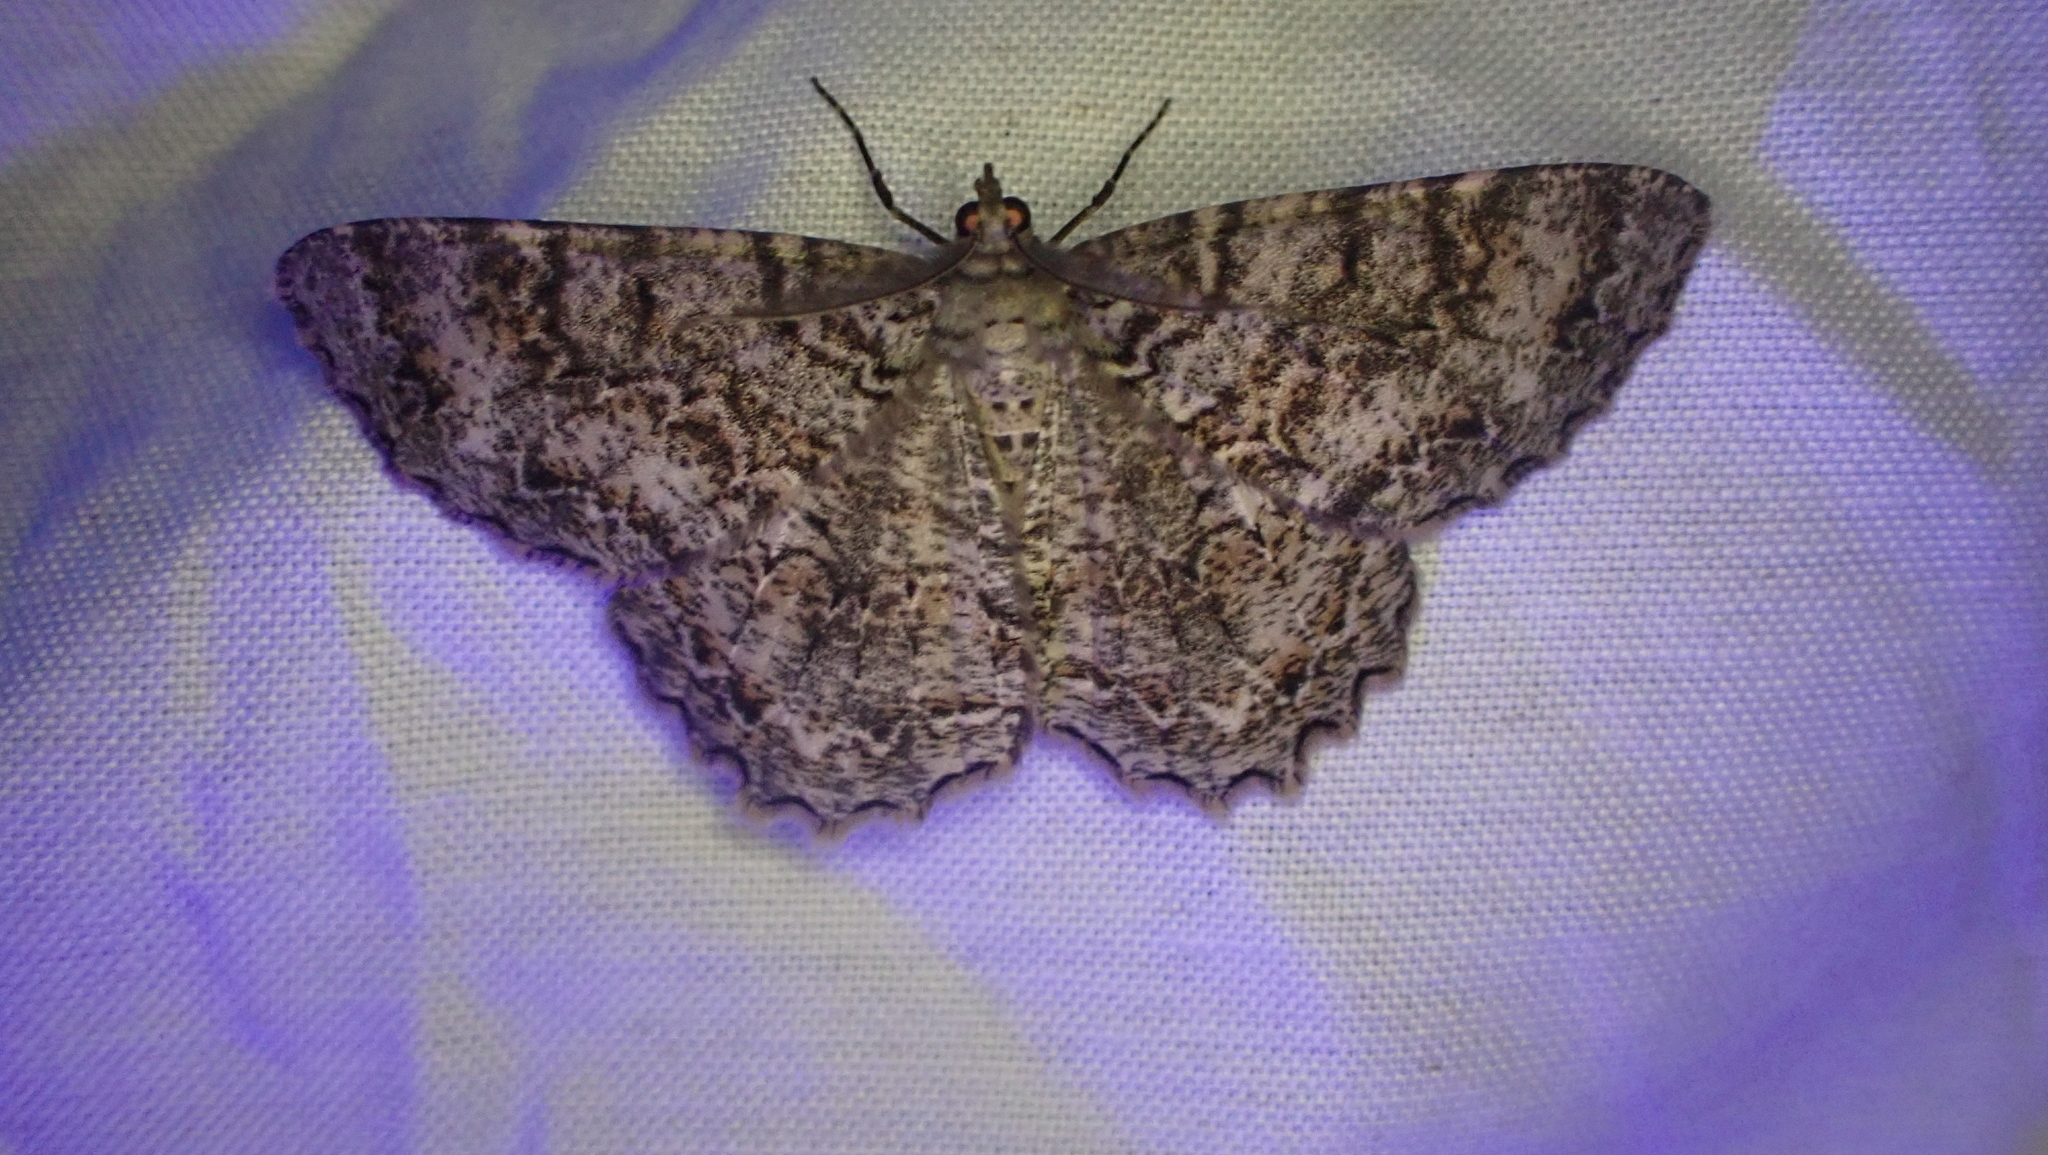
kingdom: Animalia
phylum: Arthropoda
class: Insecta
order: Lepidoptera
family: Geometridae
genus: Epimecis
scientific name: Epimecis hortaria
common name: Tulip-tree beauty
